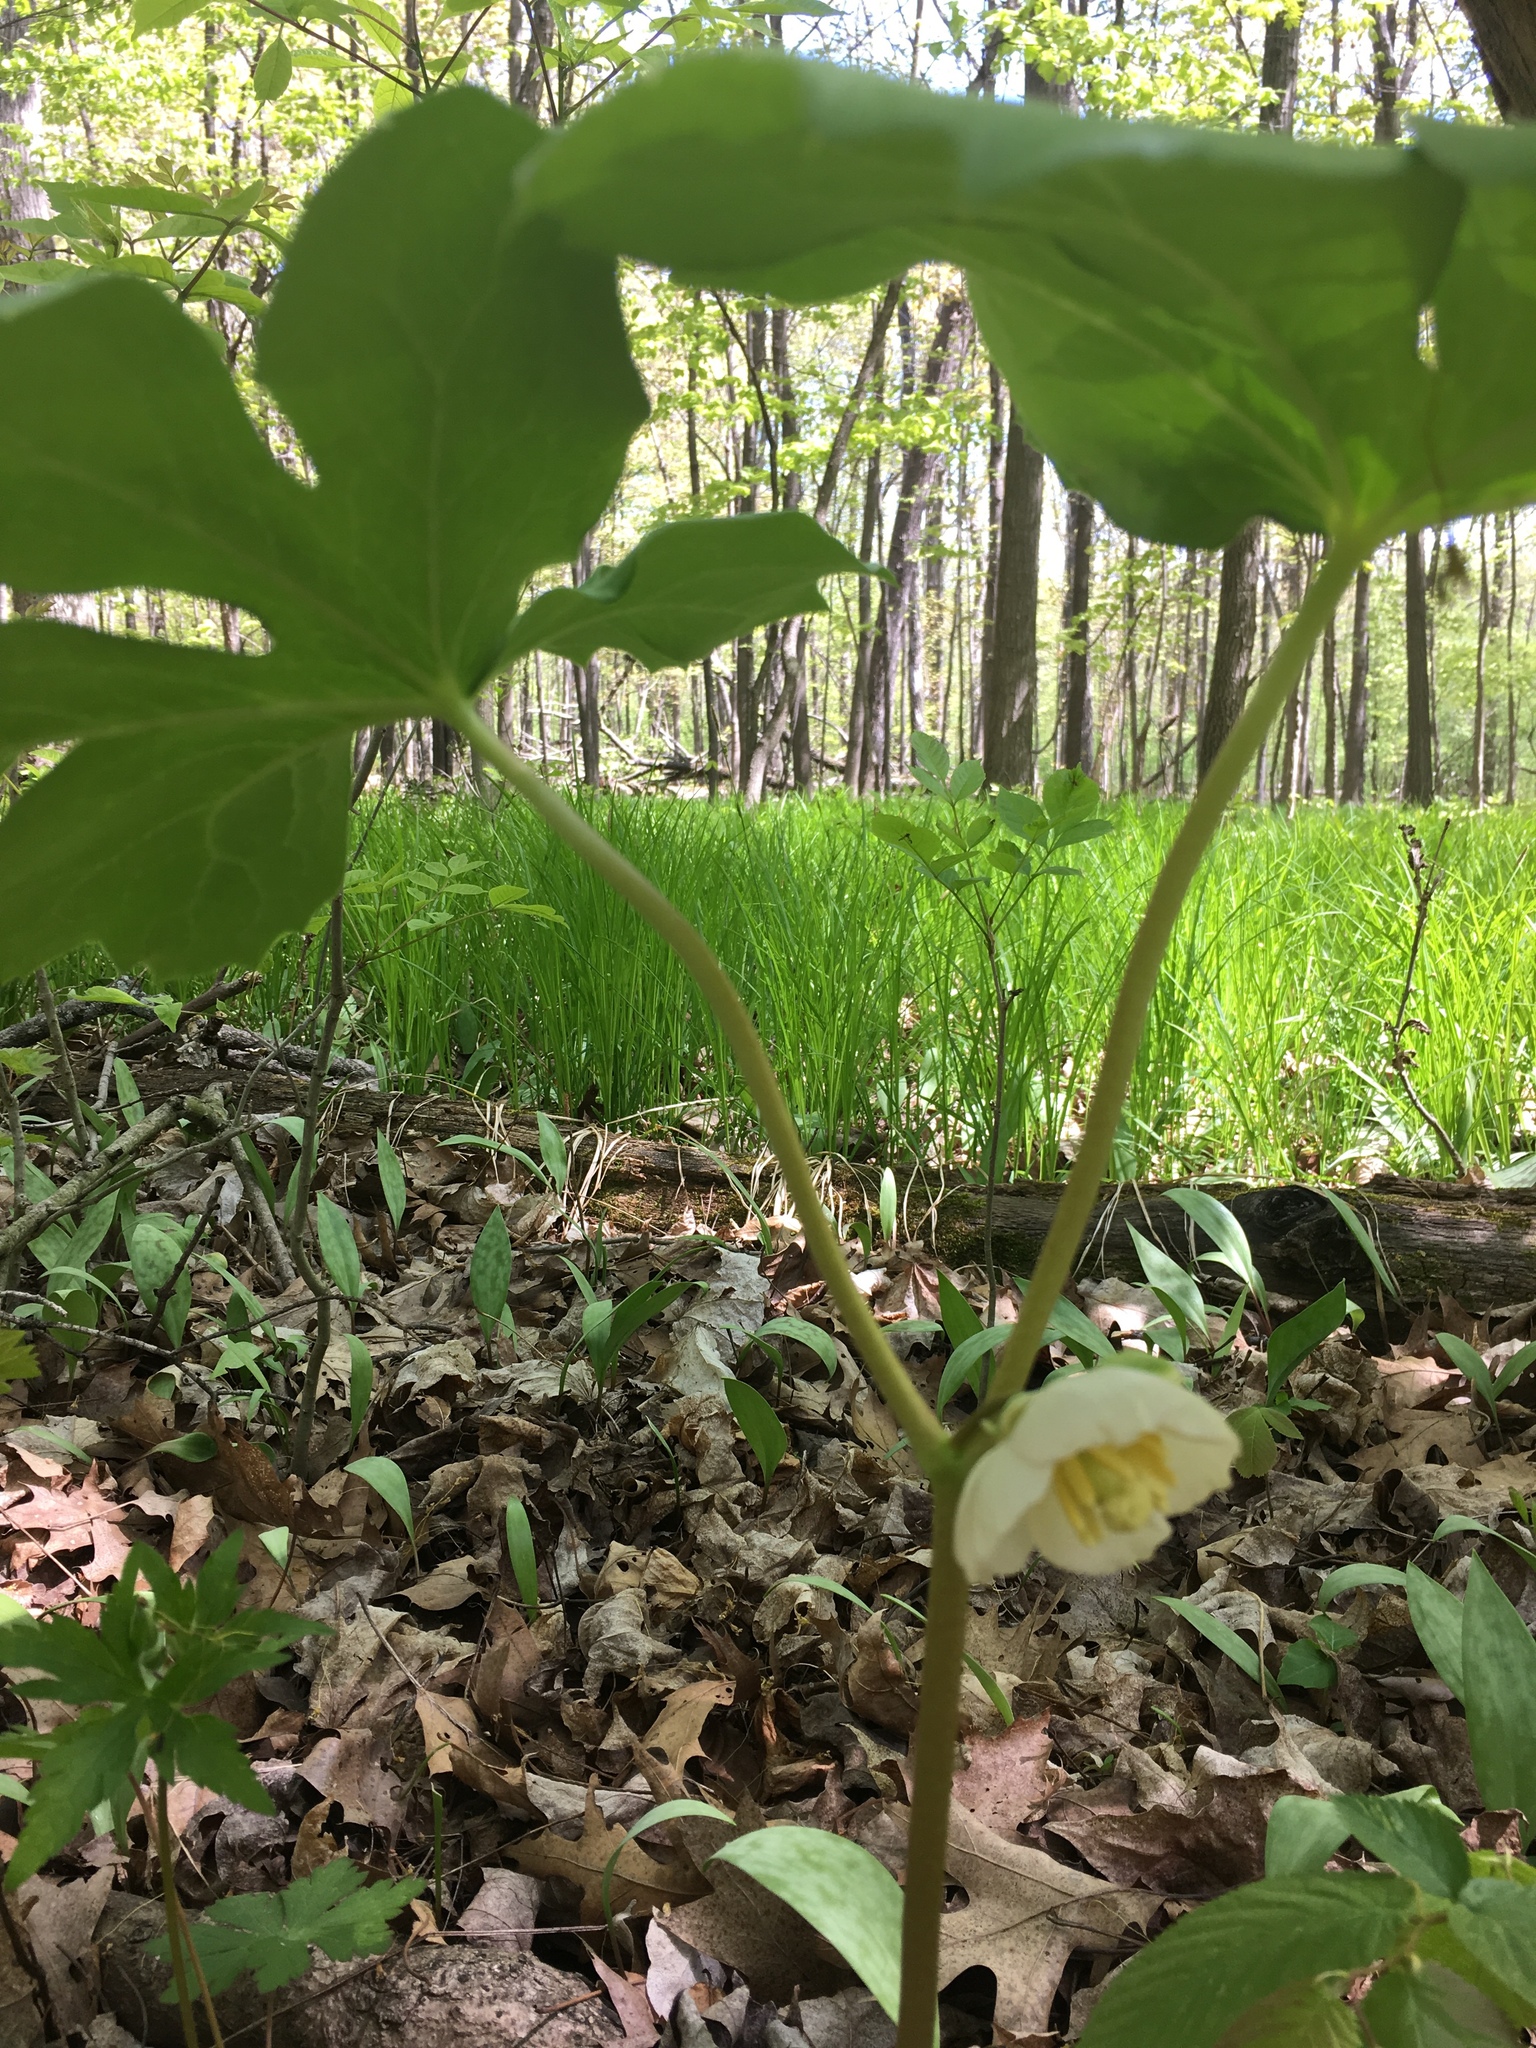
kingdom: Plantae
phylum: Tracheophyta
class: Magnoliopsida
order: Ranunculales
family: Berberidaceae
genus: Podophyllum
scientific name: Podophyllum peltatum
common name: Wild mandrake
